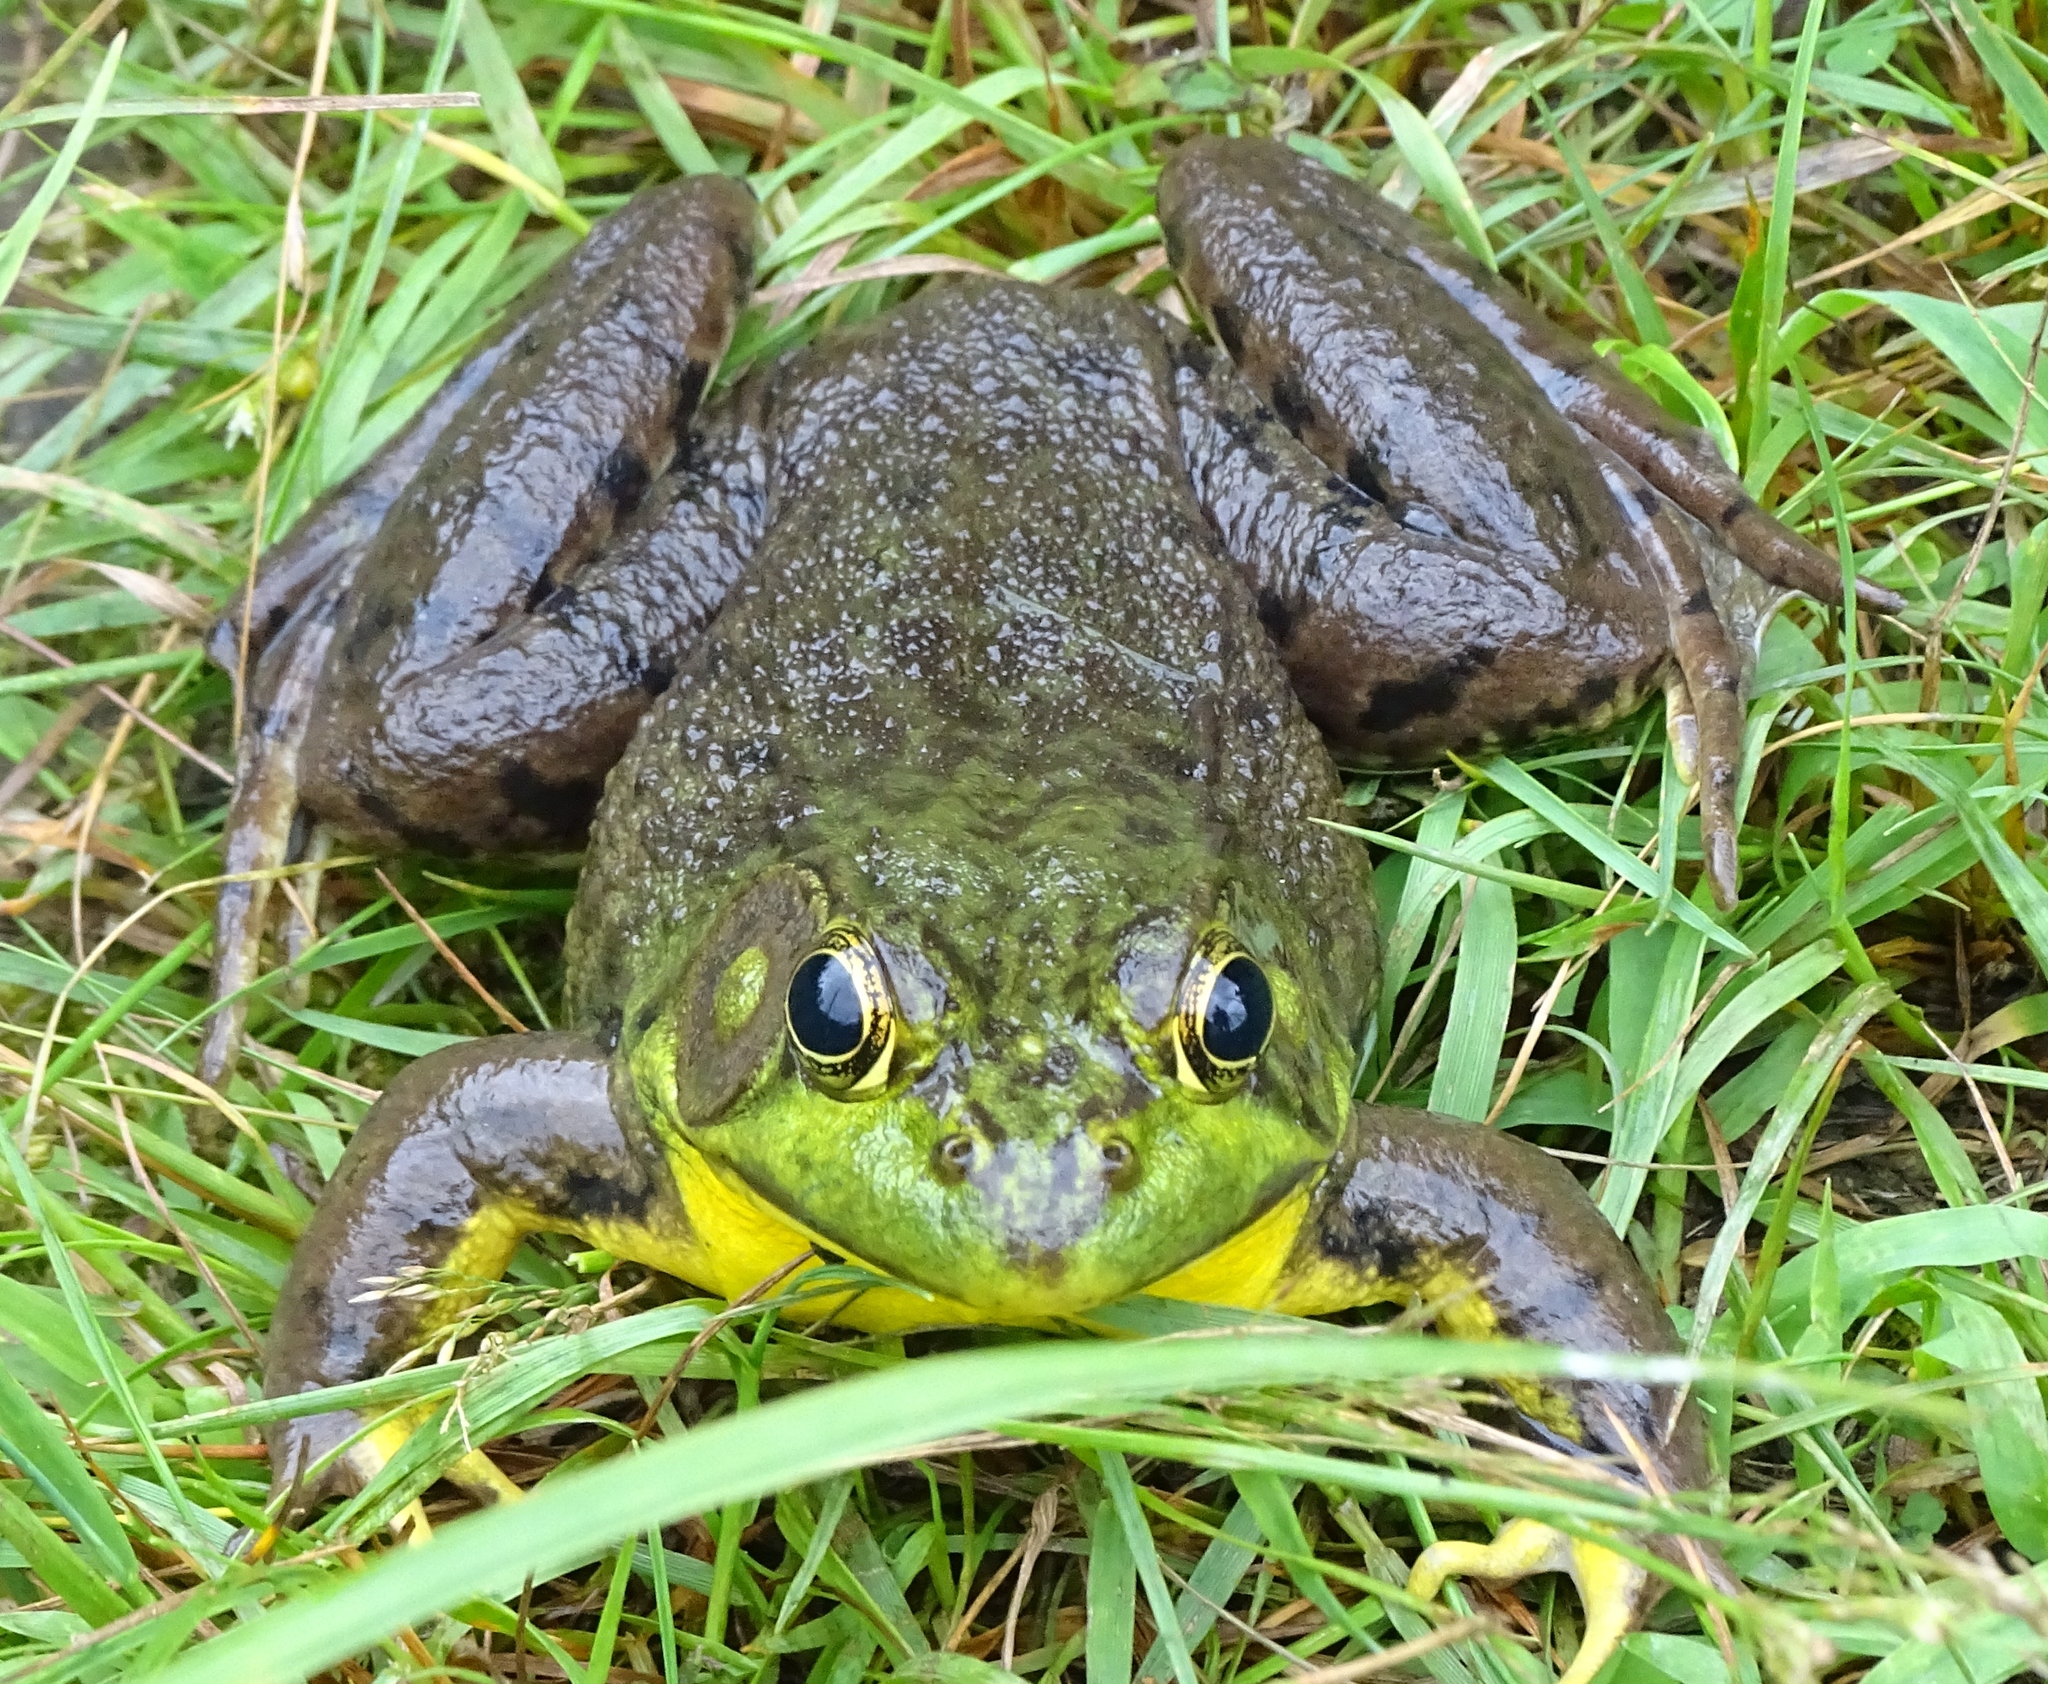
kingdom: Animalia
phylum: Chordata
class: Amphibia
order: Anura
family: Ranidae
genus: Lithobates
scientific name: Lithobates clamitans
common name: Green frog
